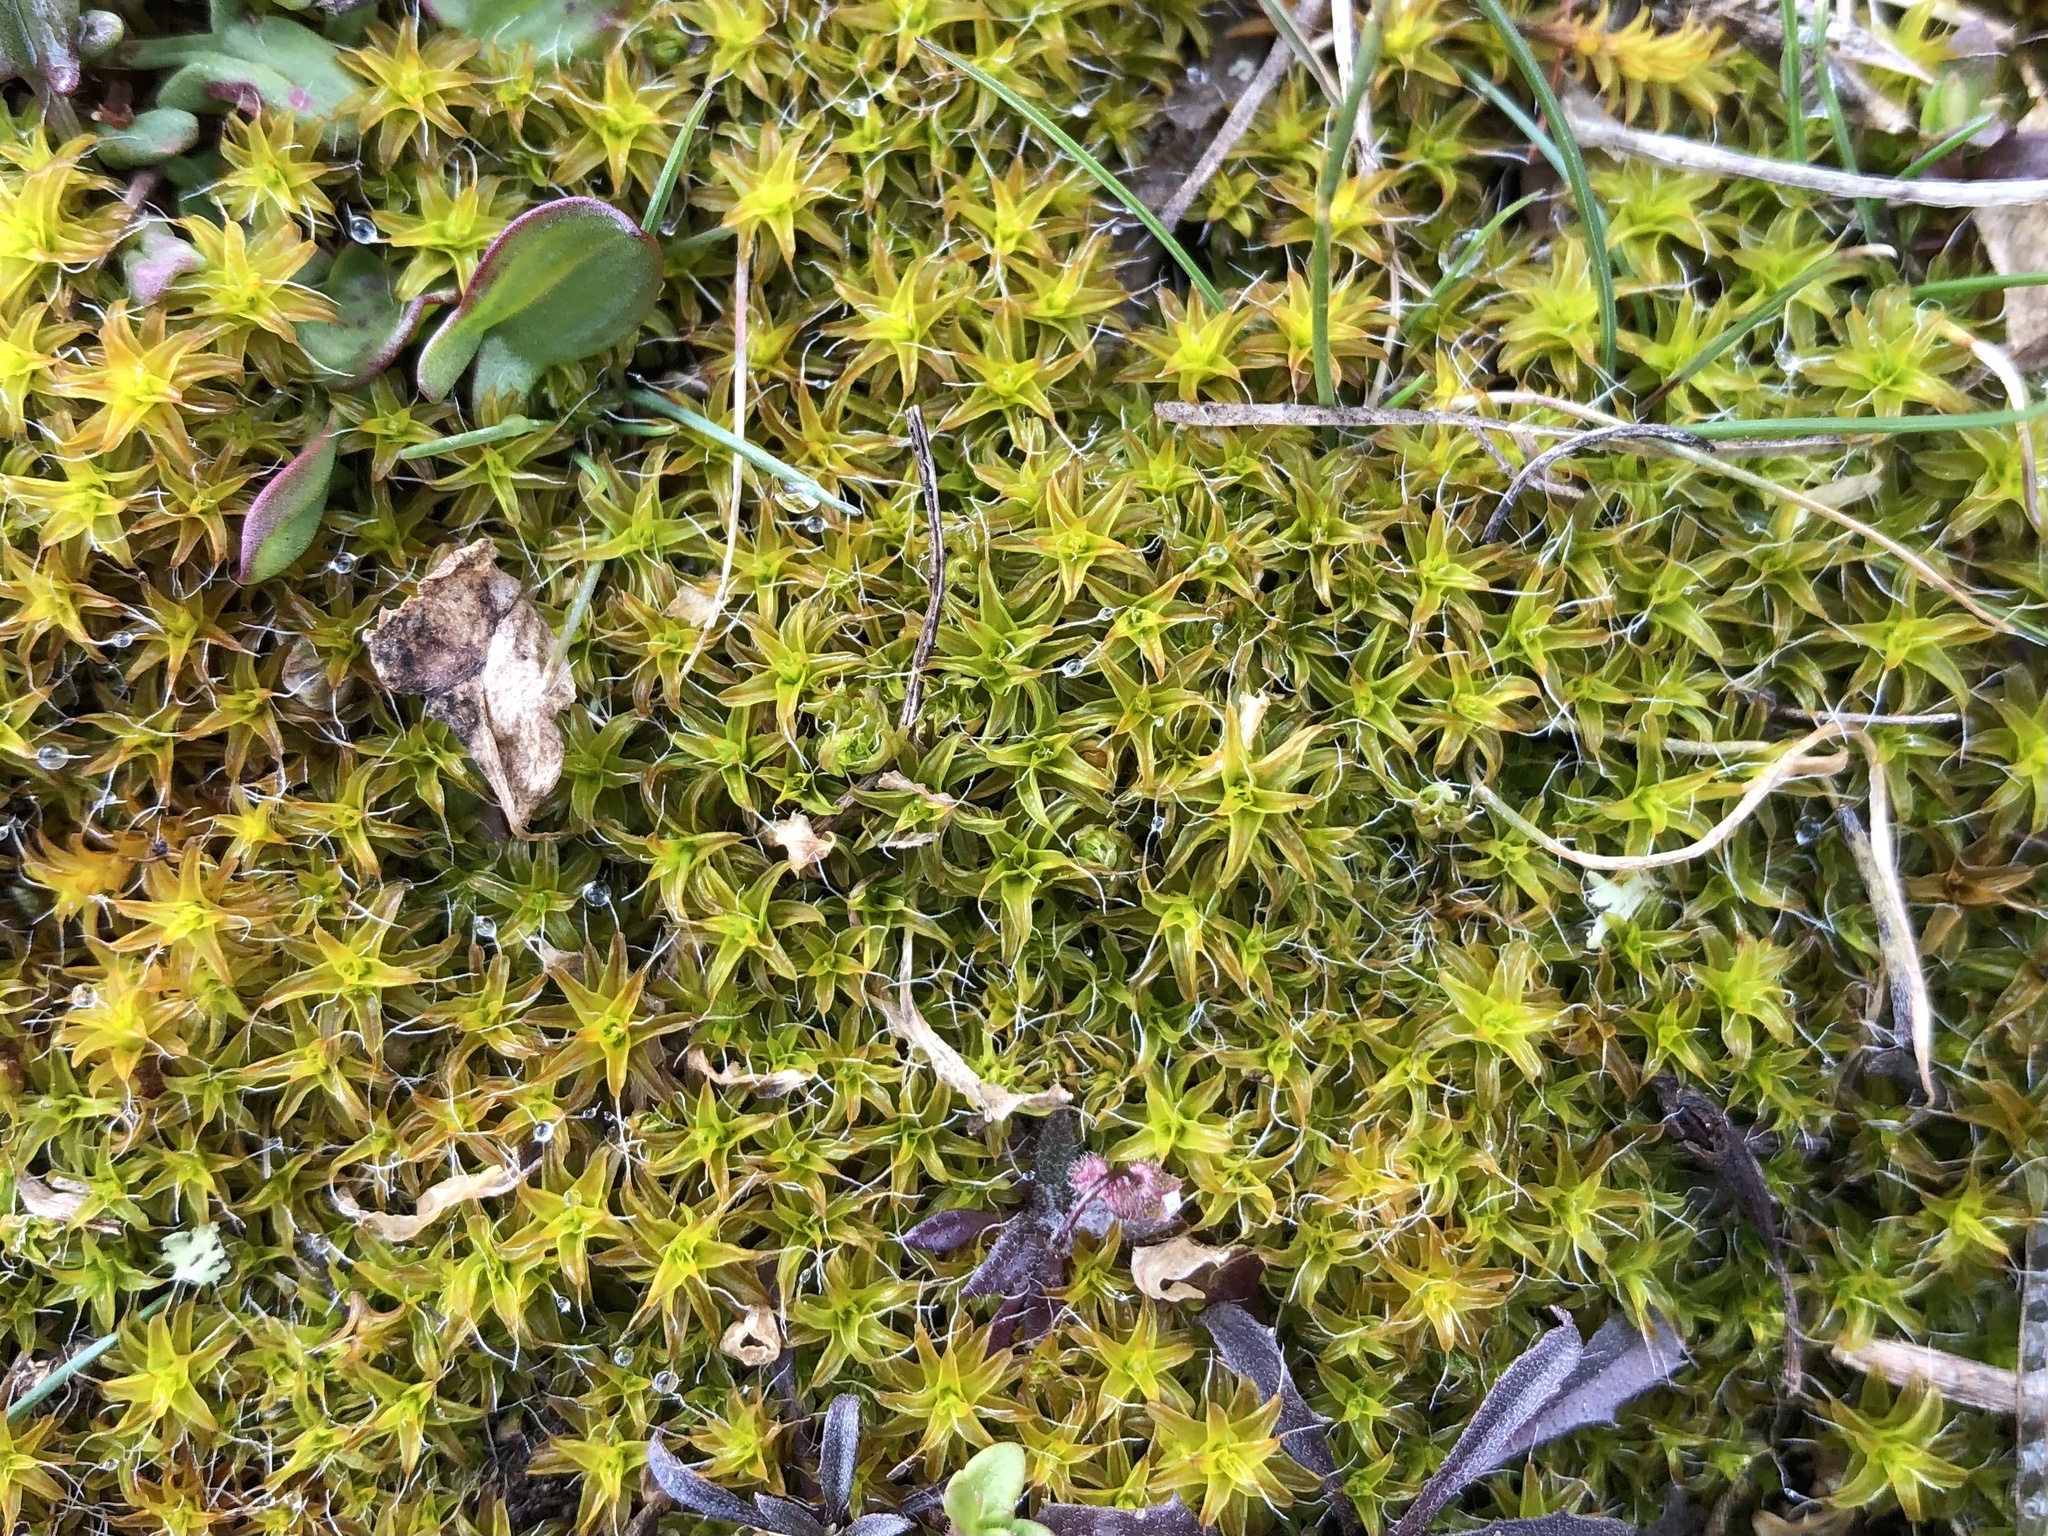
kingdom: Plantae
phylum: Bryophyta
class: Bryopsida
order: Pottiales
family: Pottiaceae
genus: Syntrichia
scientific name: Syntrichia ruralis
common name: Sidewalk screw moss
